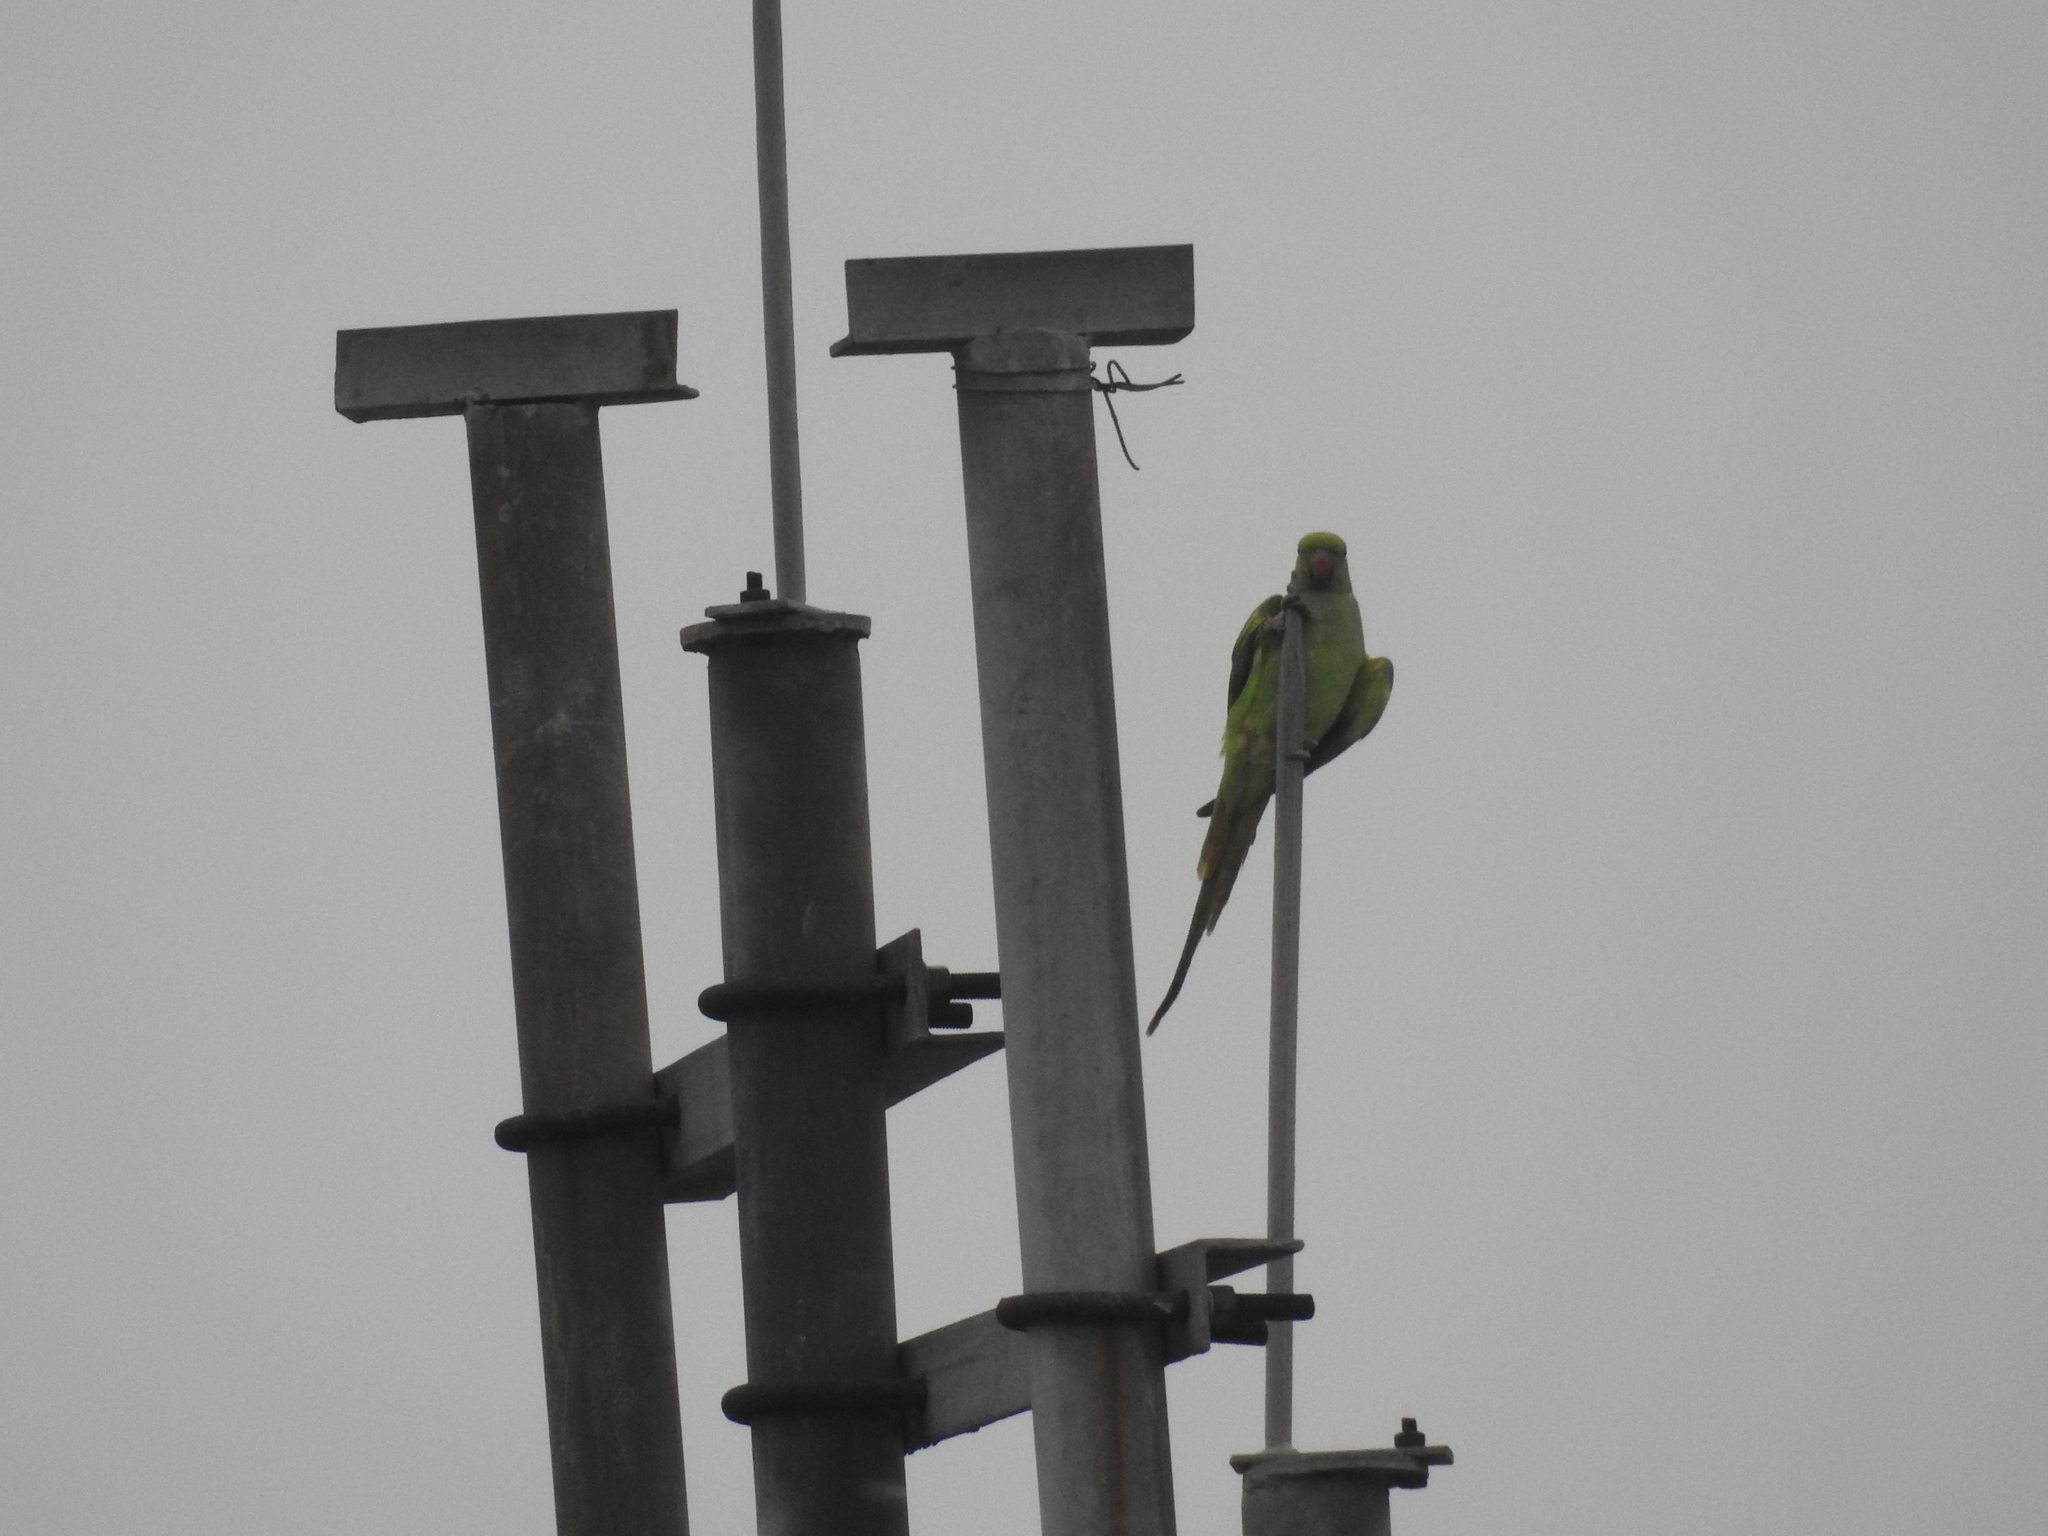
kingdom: Animalia
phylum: Chordata
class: Aves
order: Psittaciformes
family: Psittacidae
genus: Psittacula
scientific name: Psittacula krameri
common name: Rose-ringed parakeet
